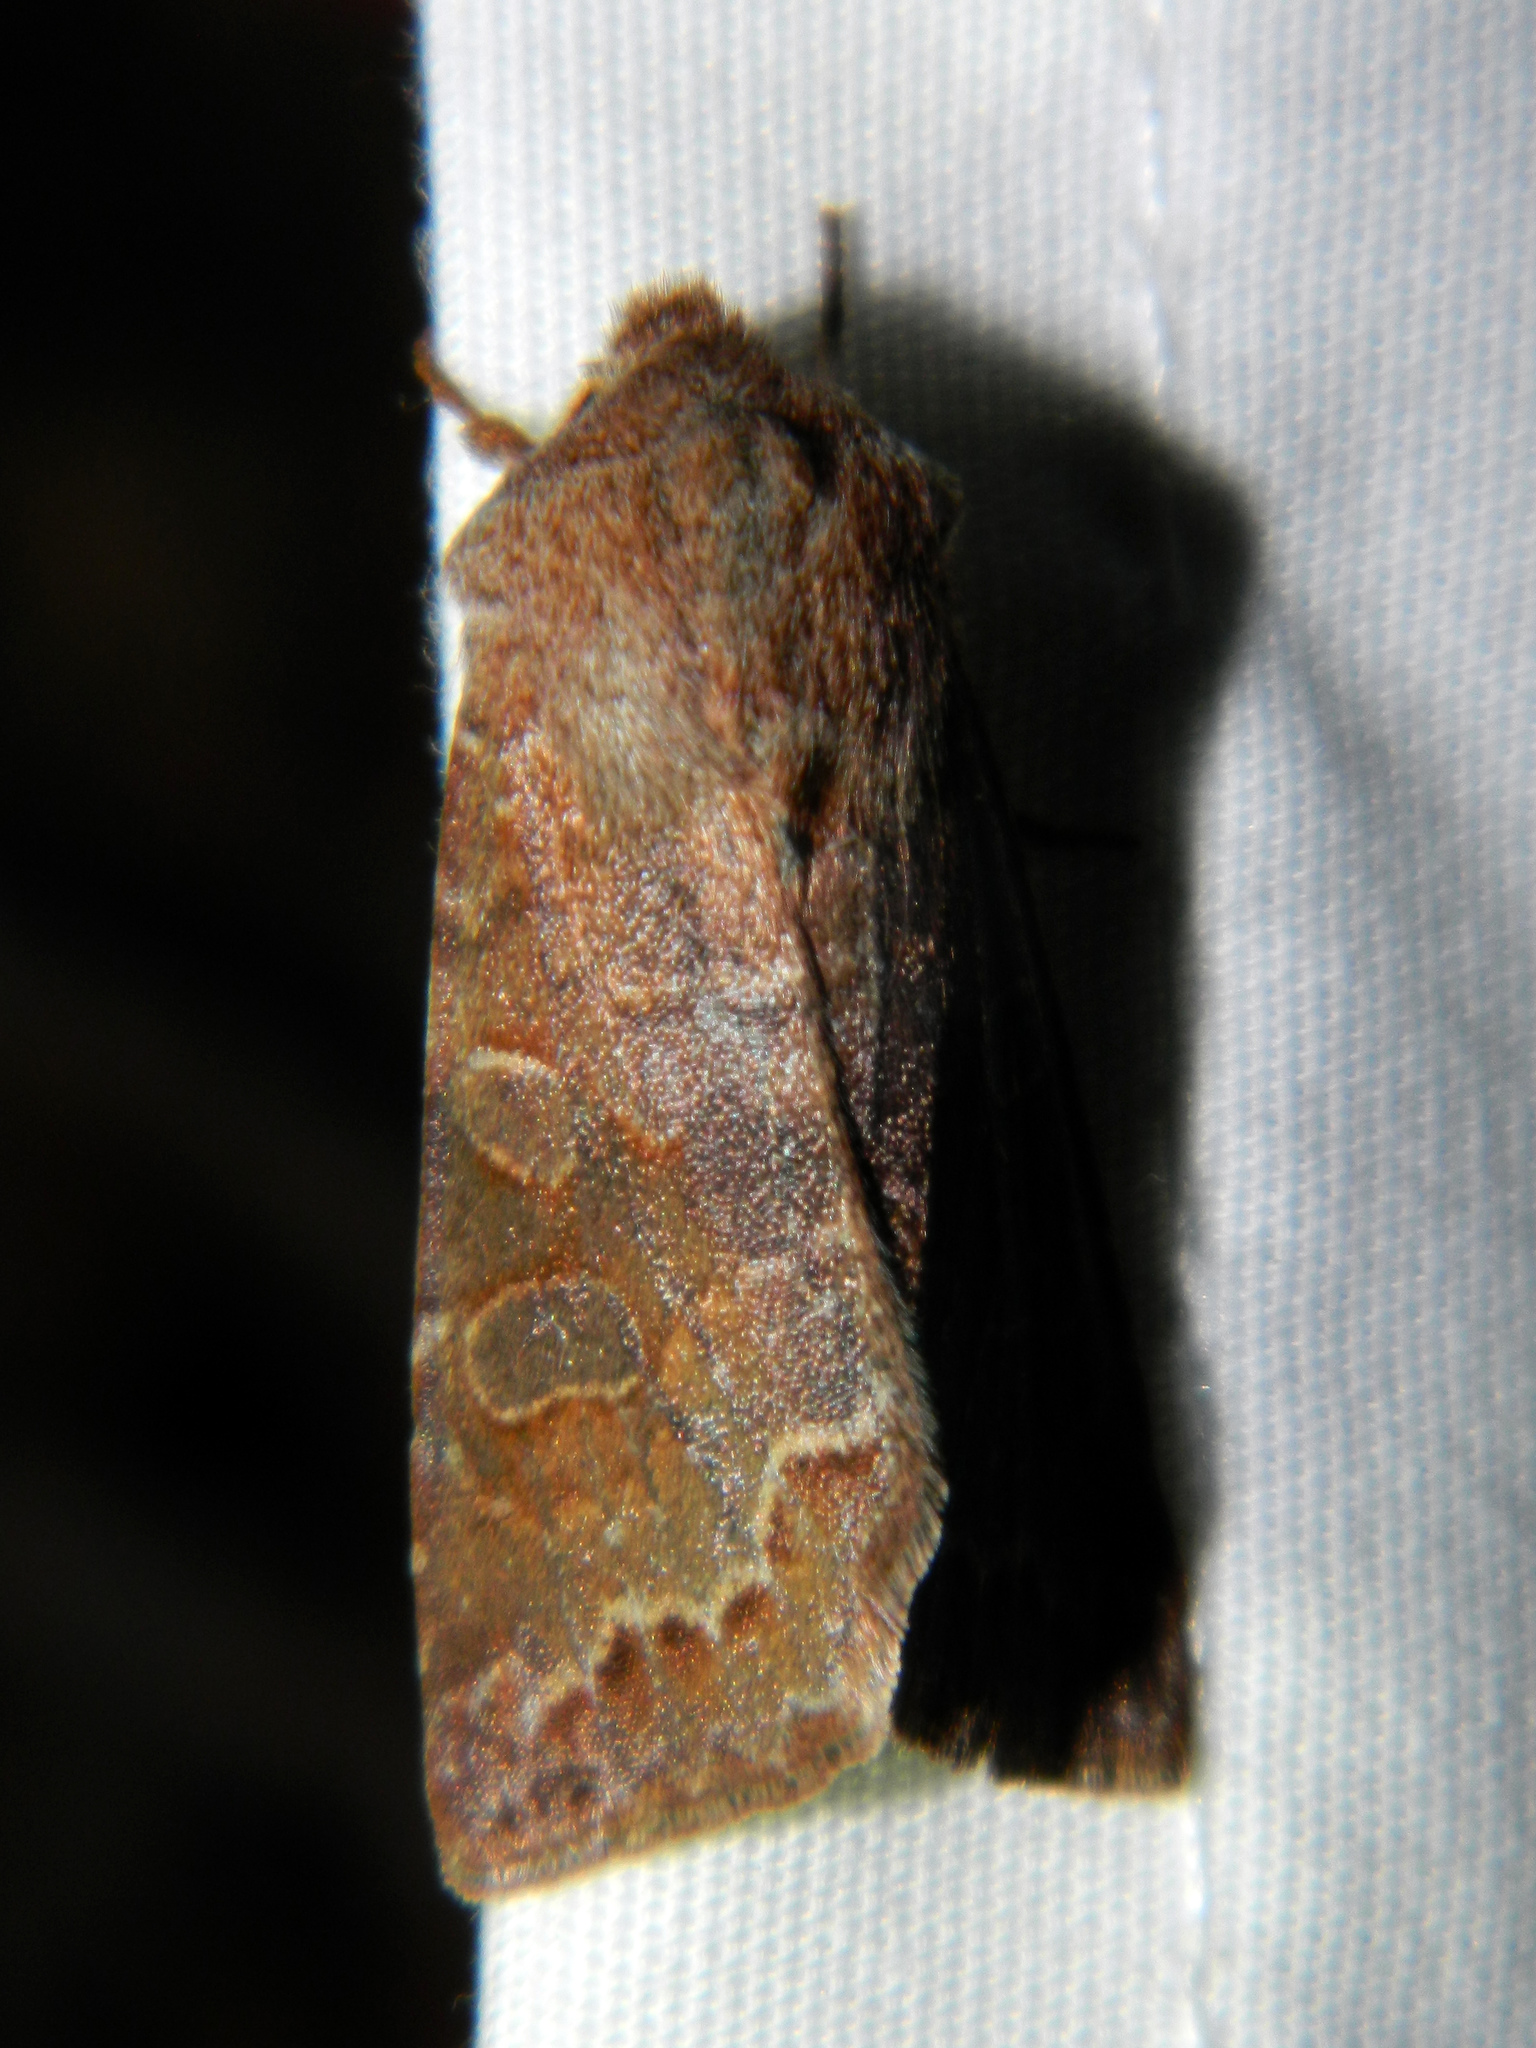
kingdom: Animalia
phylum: Arthropoda
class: Insecta
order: Lepidoptera
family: Noctuidae
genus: Orthosia
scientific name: Orthosia revicta
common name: Rusty whitesided caterpillar
